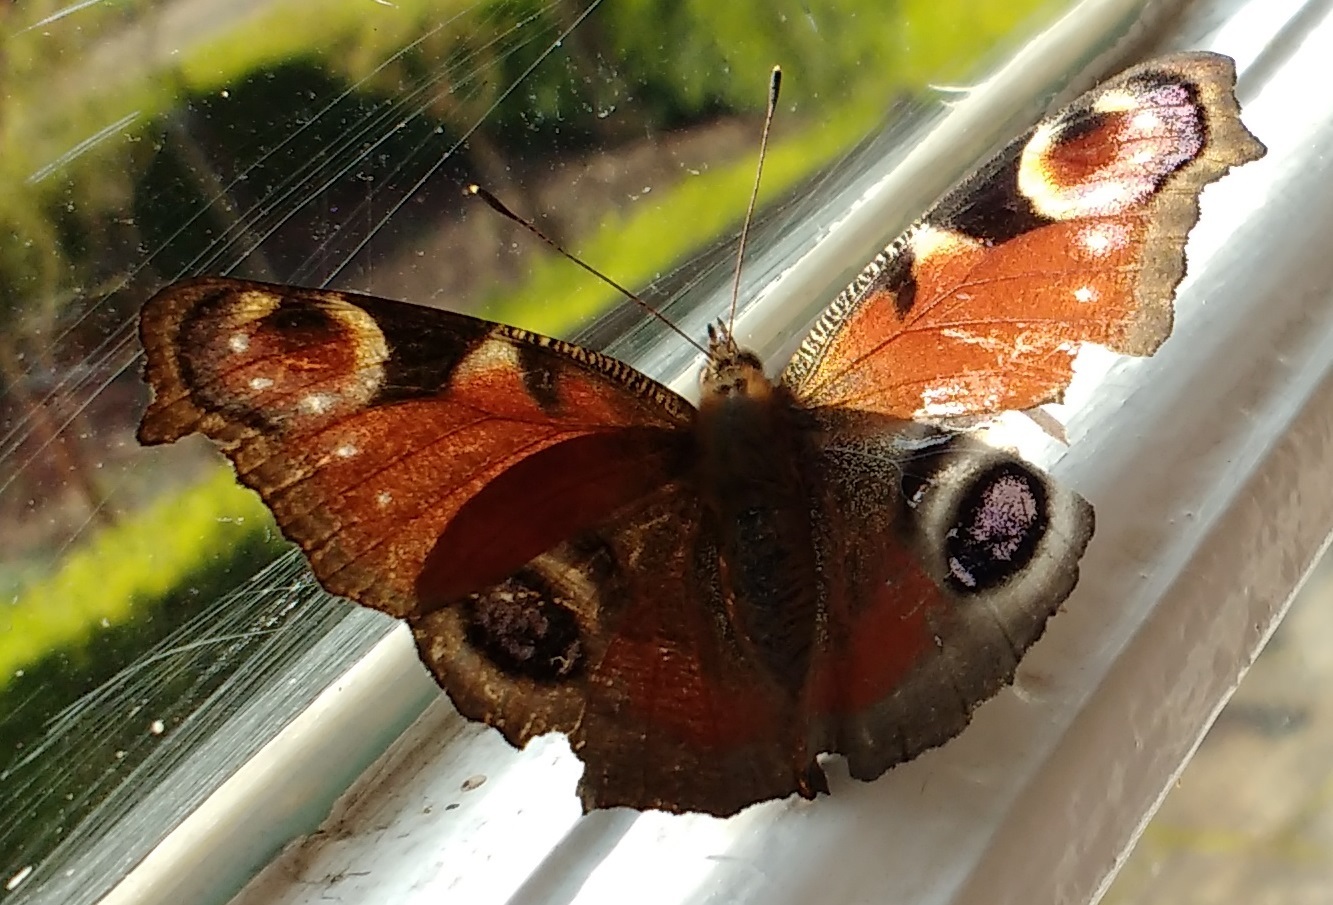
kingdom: Animalia
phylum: Arthropoda
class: Insecta
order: Lepidoptera
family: Nymphalidae
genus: Aglais
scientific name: Aglais io
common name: Peacock
